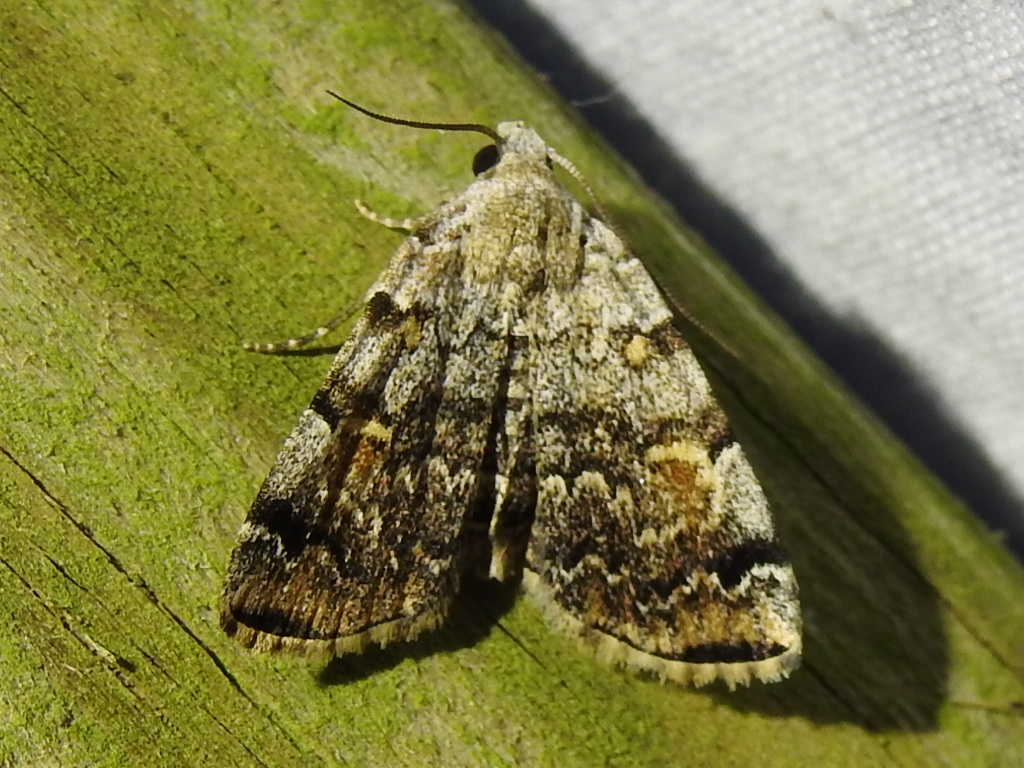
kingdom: Animalia
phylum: Arthropoda
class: Insecta
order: Lepidoptera
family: Erebidae
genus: Idia
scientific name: Idia americalis
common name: American idia moth
